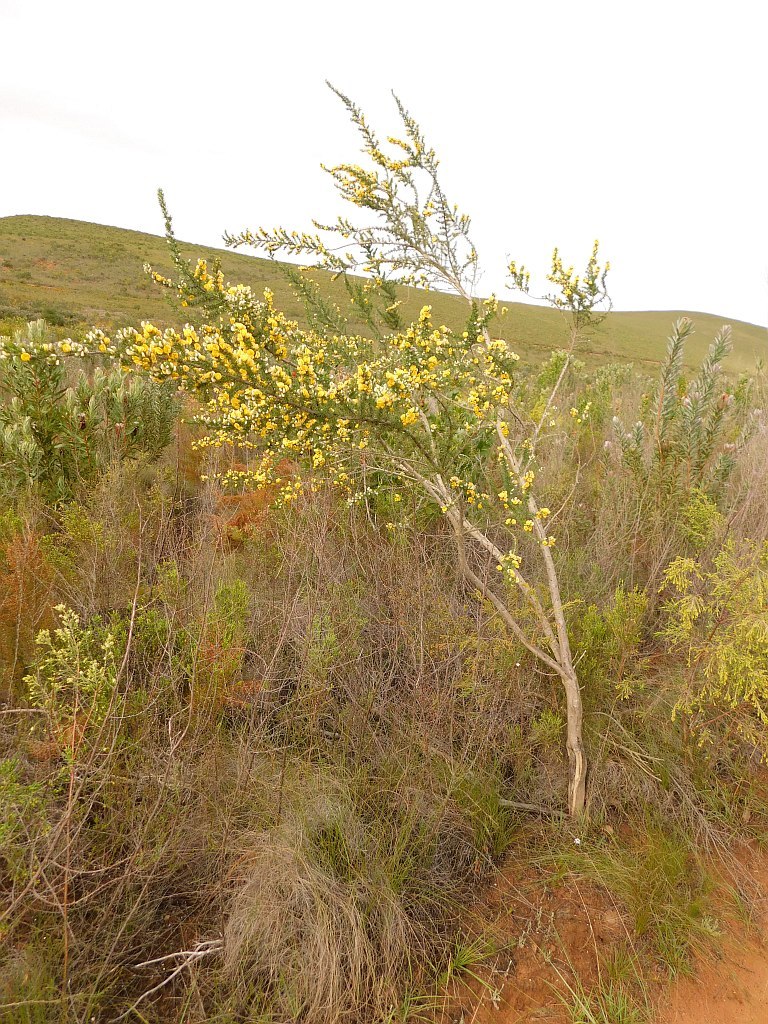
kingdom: Plantae
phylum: Tracheophyta
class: Magnoliopsida
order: Fabales
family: Fabaceae
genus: Aspalathus
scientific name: Aspalathus hirta
